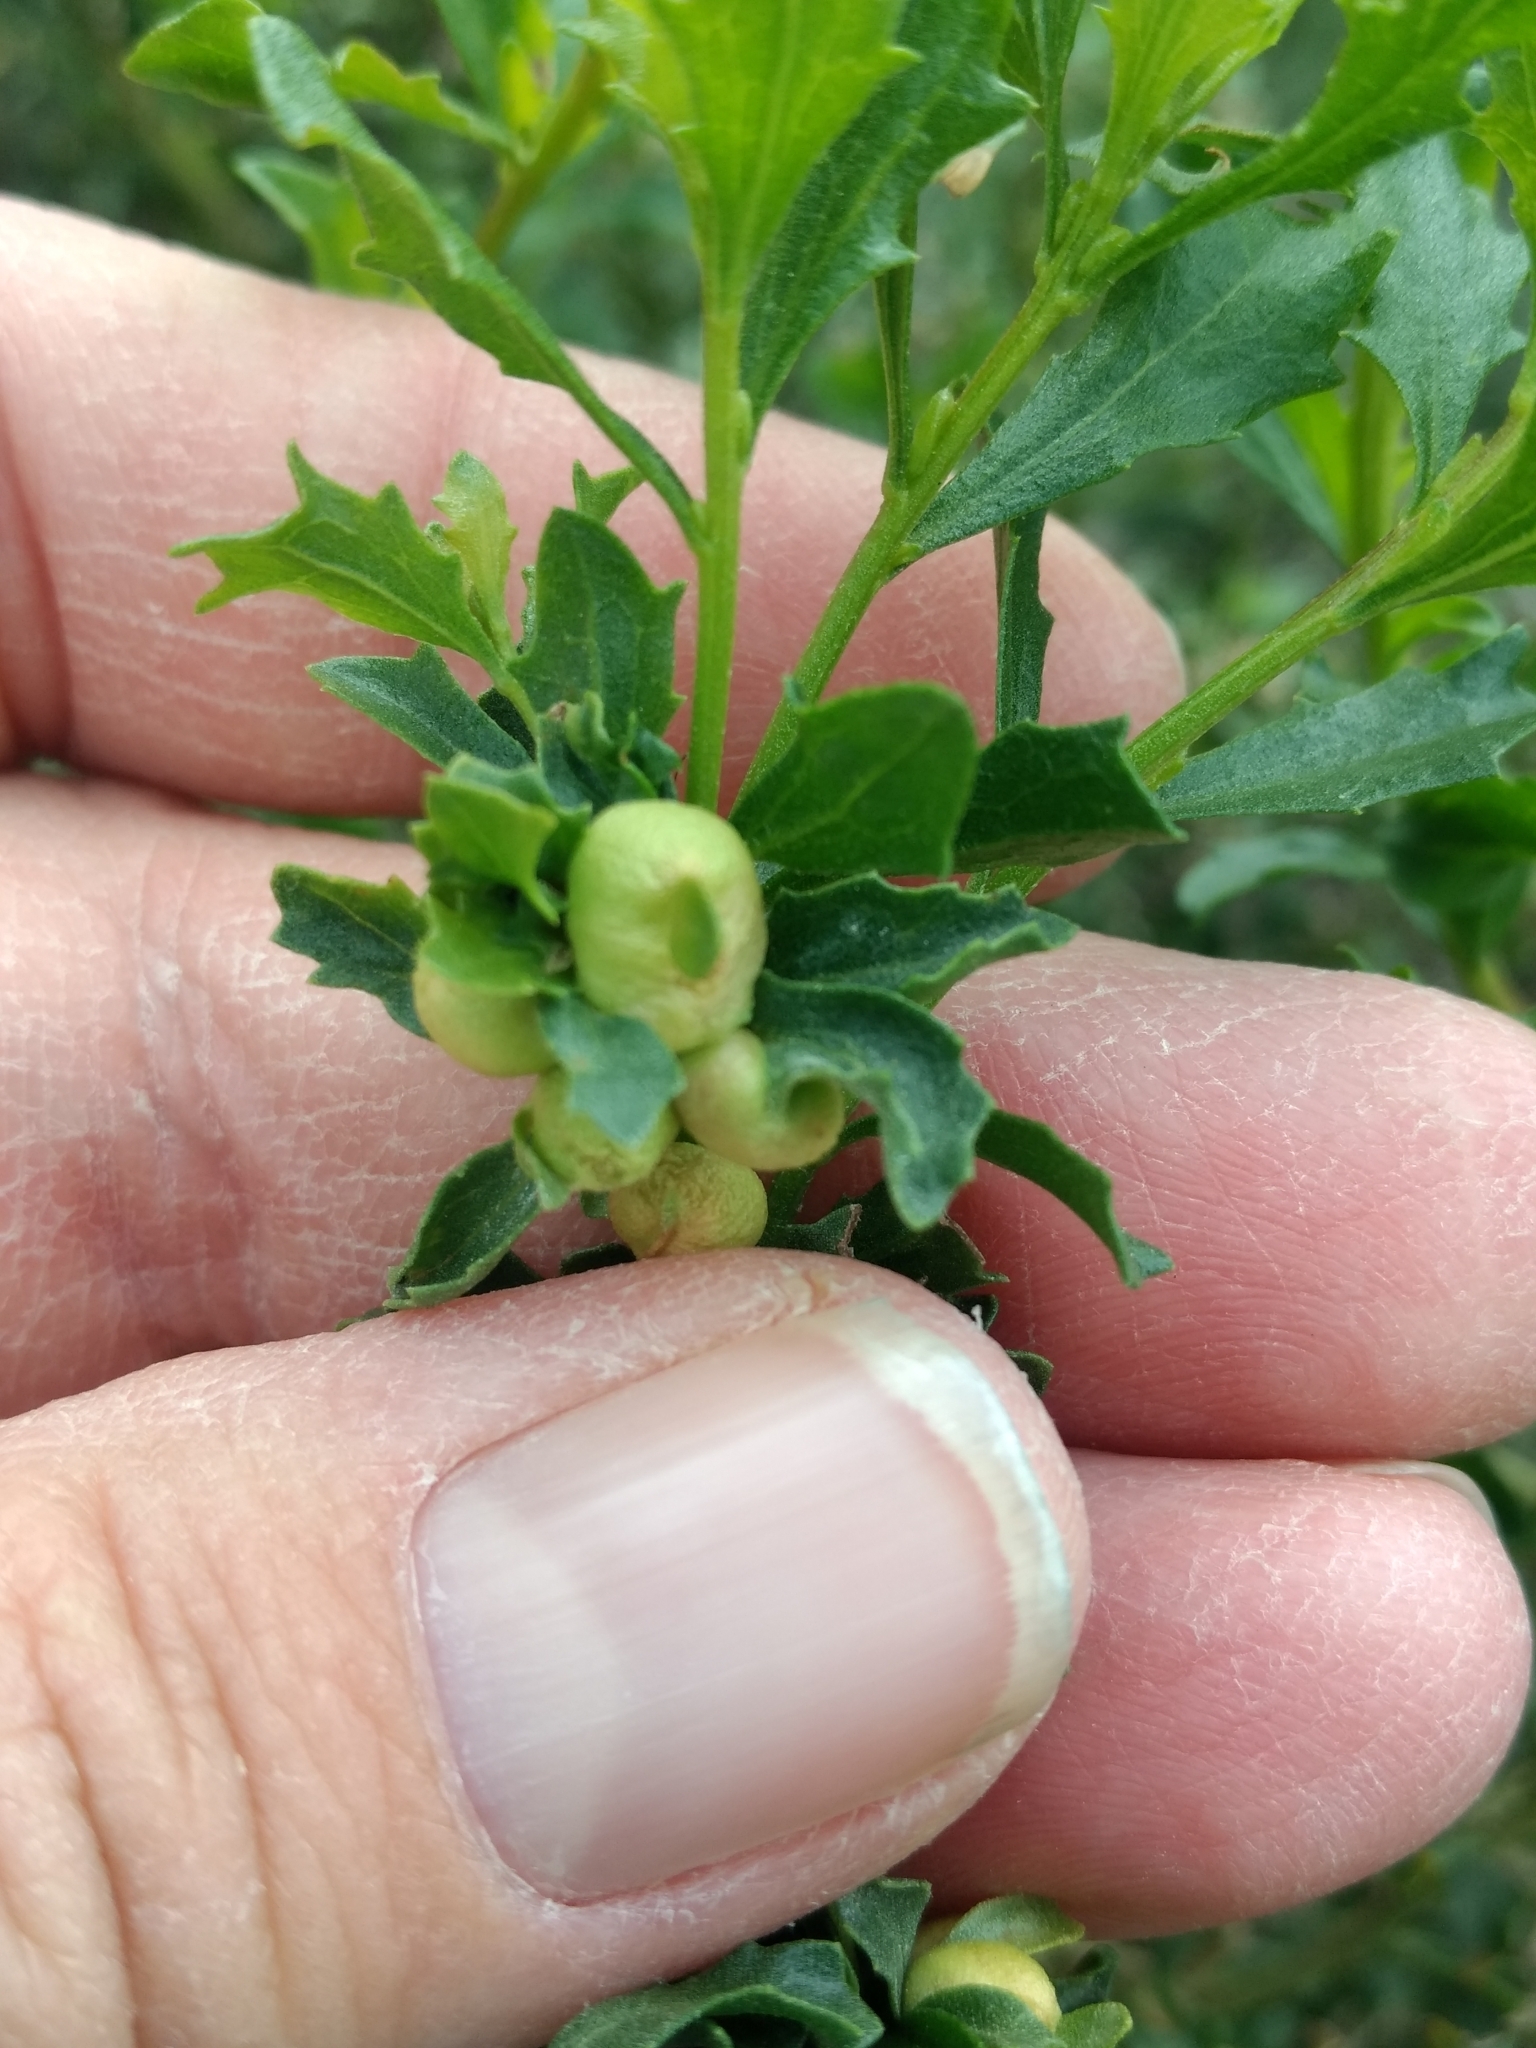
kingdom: Animalia
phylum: Arthropoda
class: Insecta
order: Diptera
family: Cecidomyiidae
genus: Rhopalomyia
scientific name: Rhopalomyia californica
